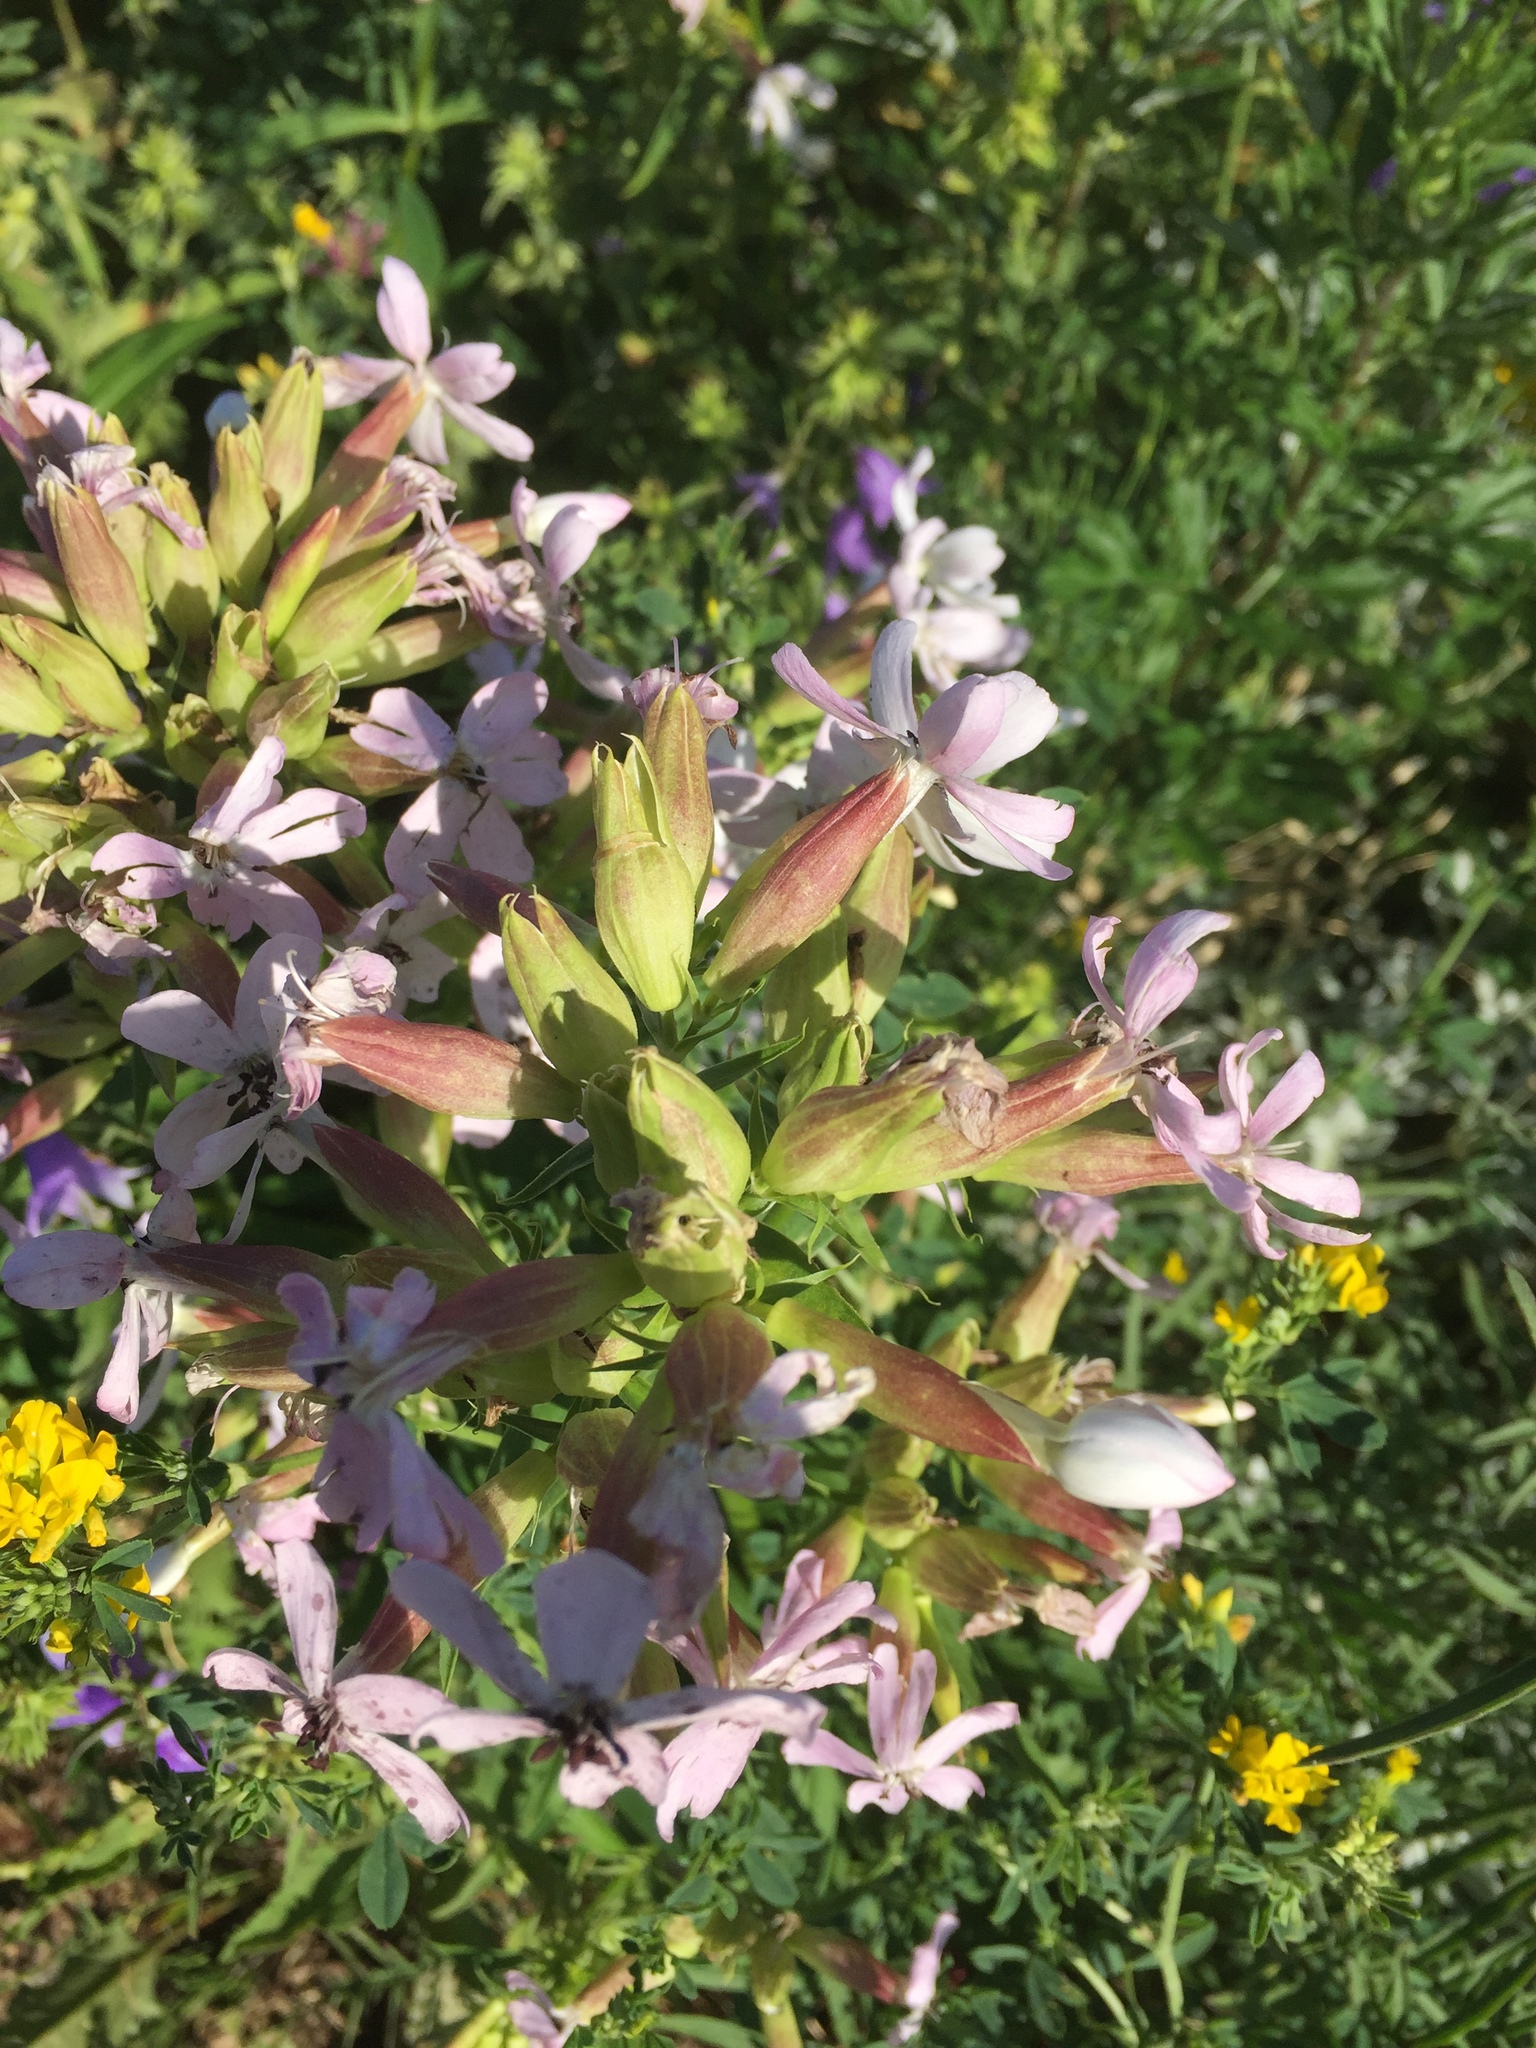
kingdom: Plantae
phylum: Tracheophyta
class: Magnoliopsida
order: Caryophyllales
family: Caryophyllaceae
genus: Saponaria
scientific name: Saponaria officinalis
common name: Soapwort
